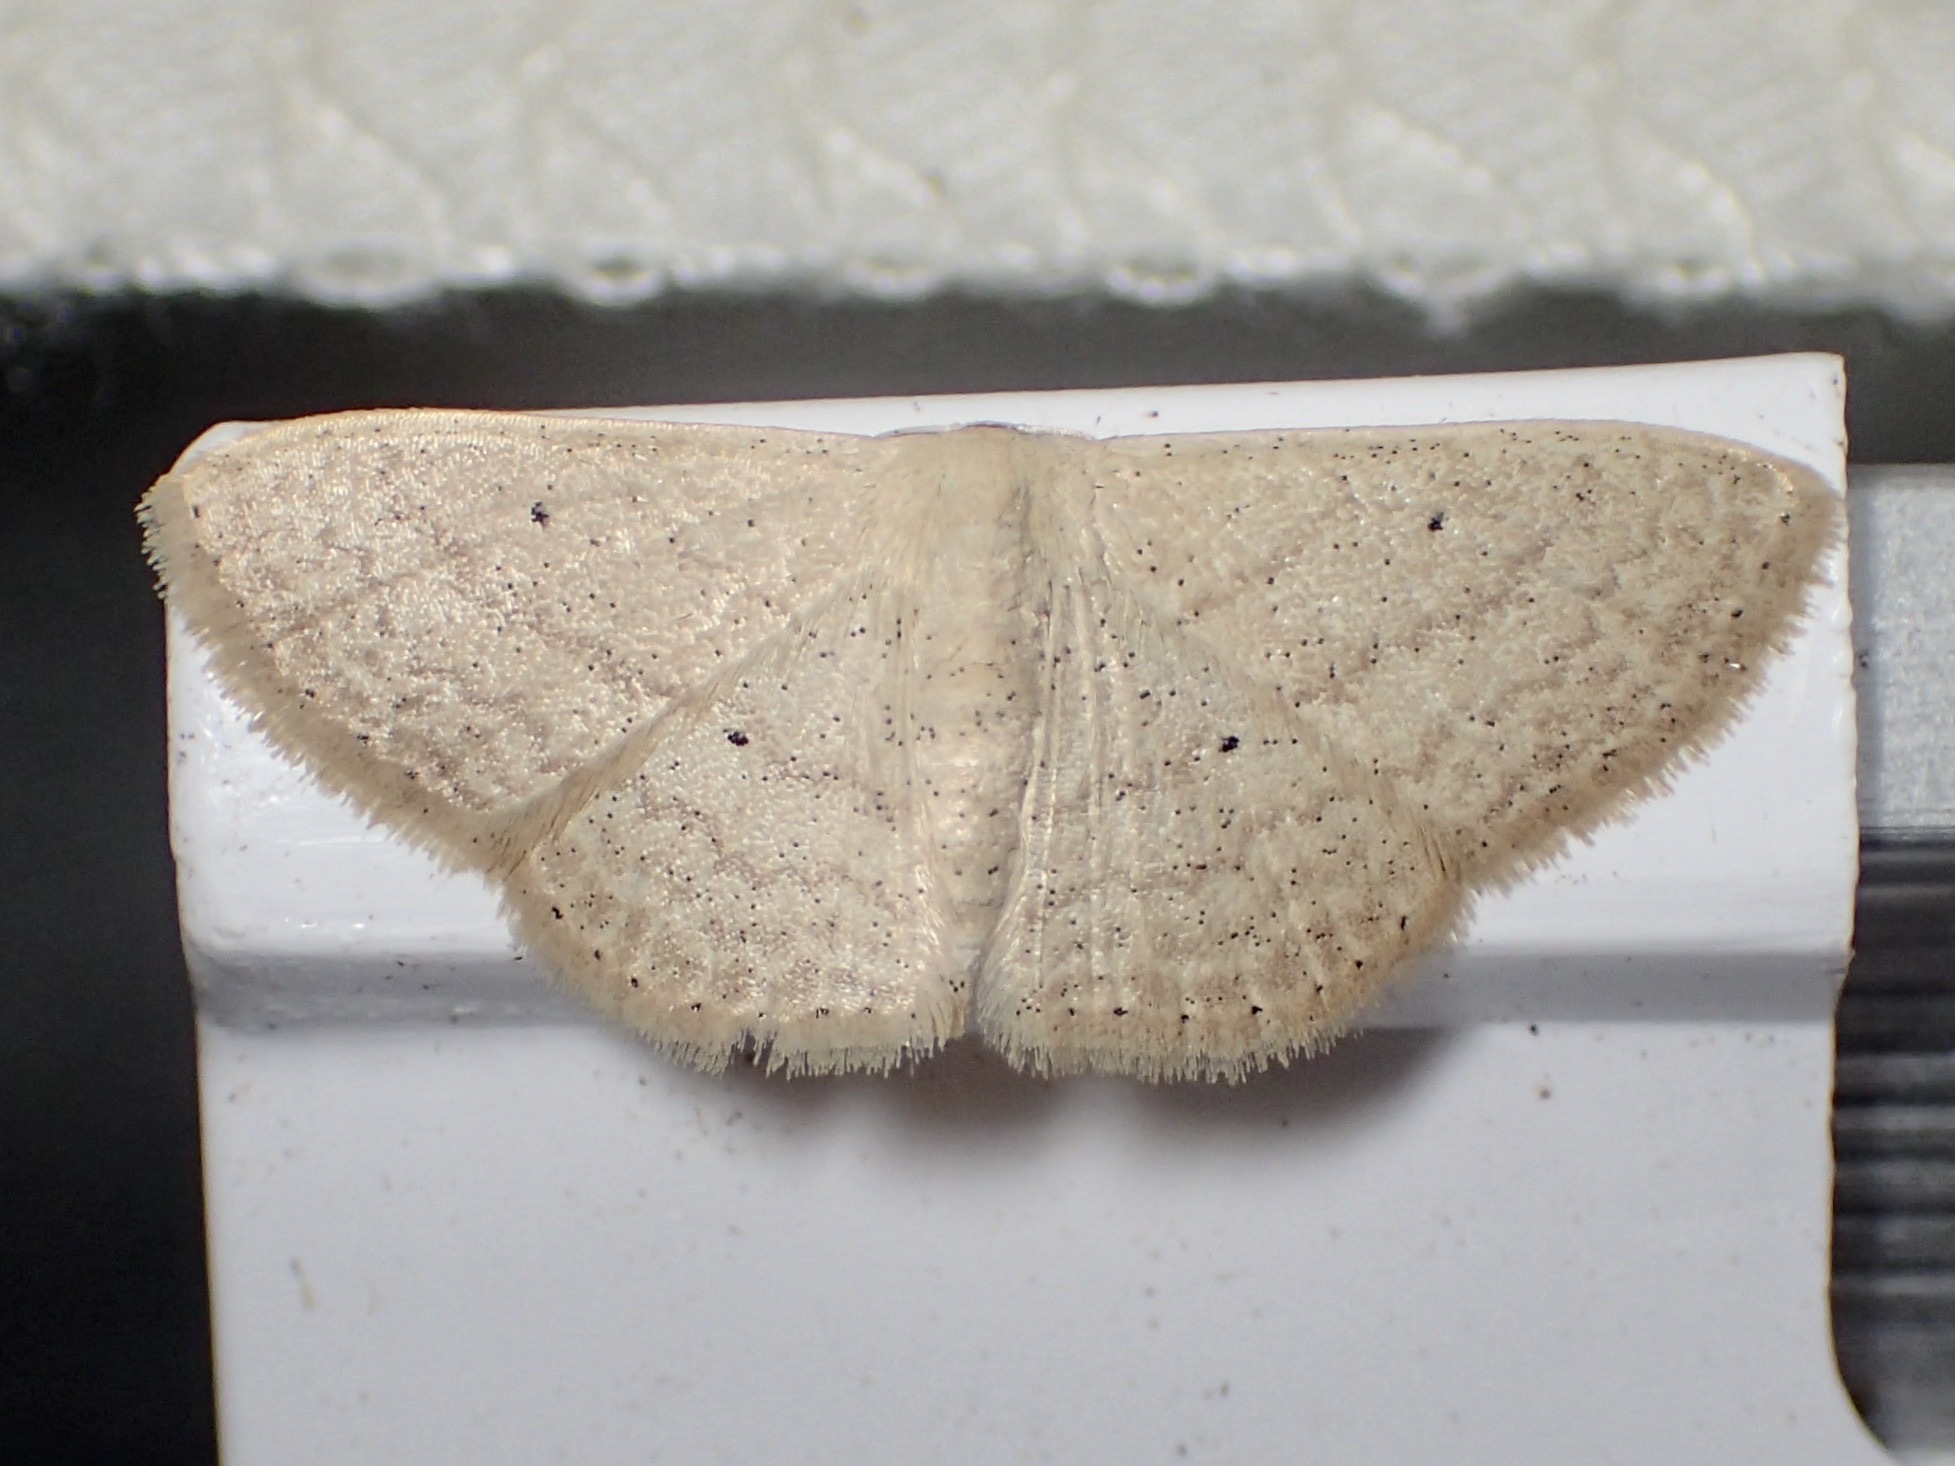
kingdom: Animalia
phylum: Arthropoda
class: Insecta
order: Lepidoptera
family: Geometridae
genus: Scopula
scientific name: Scopula optivata
